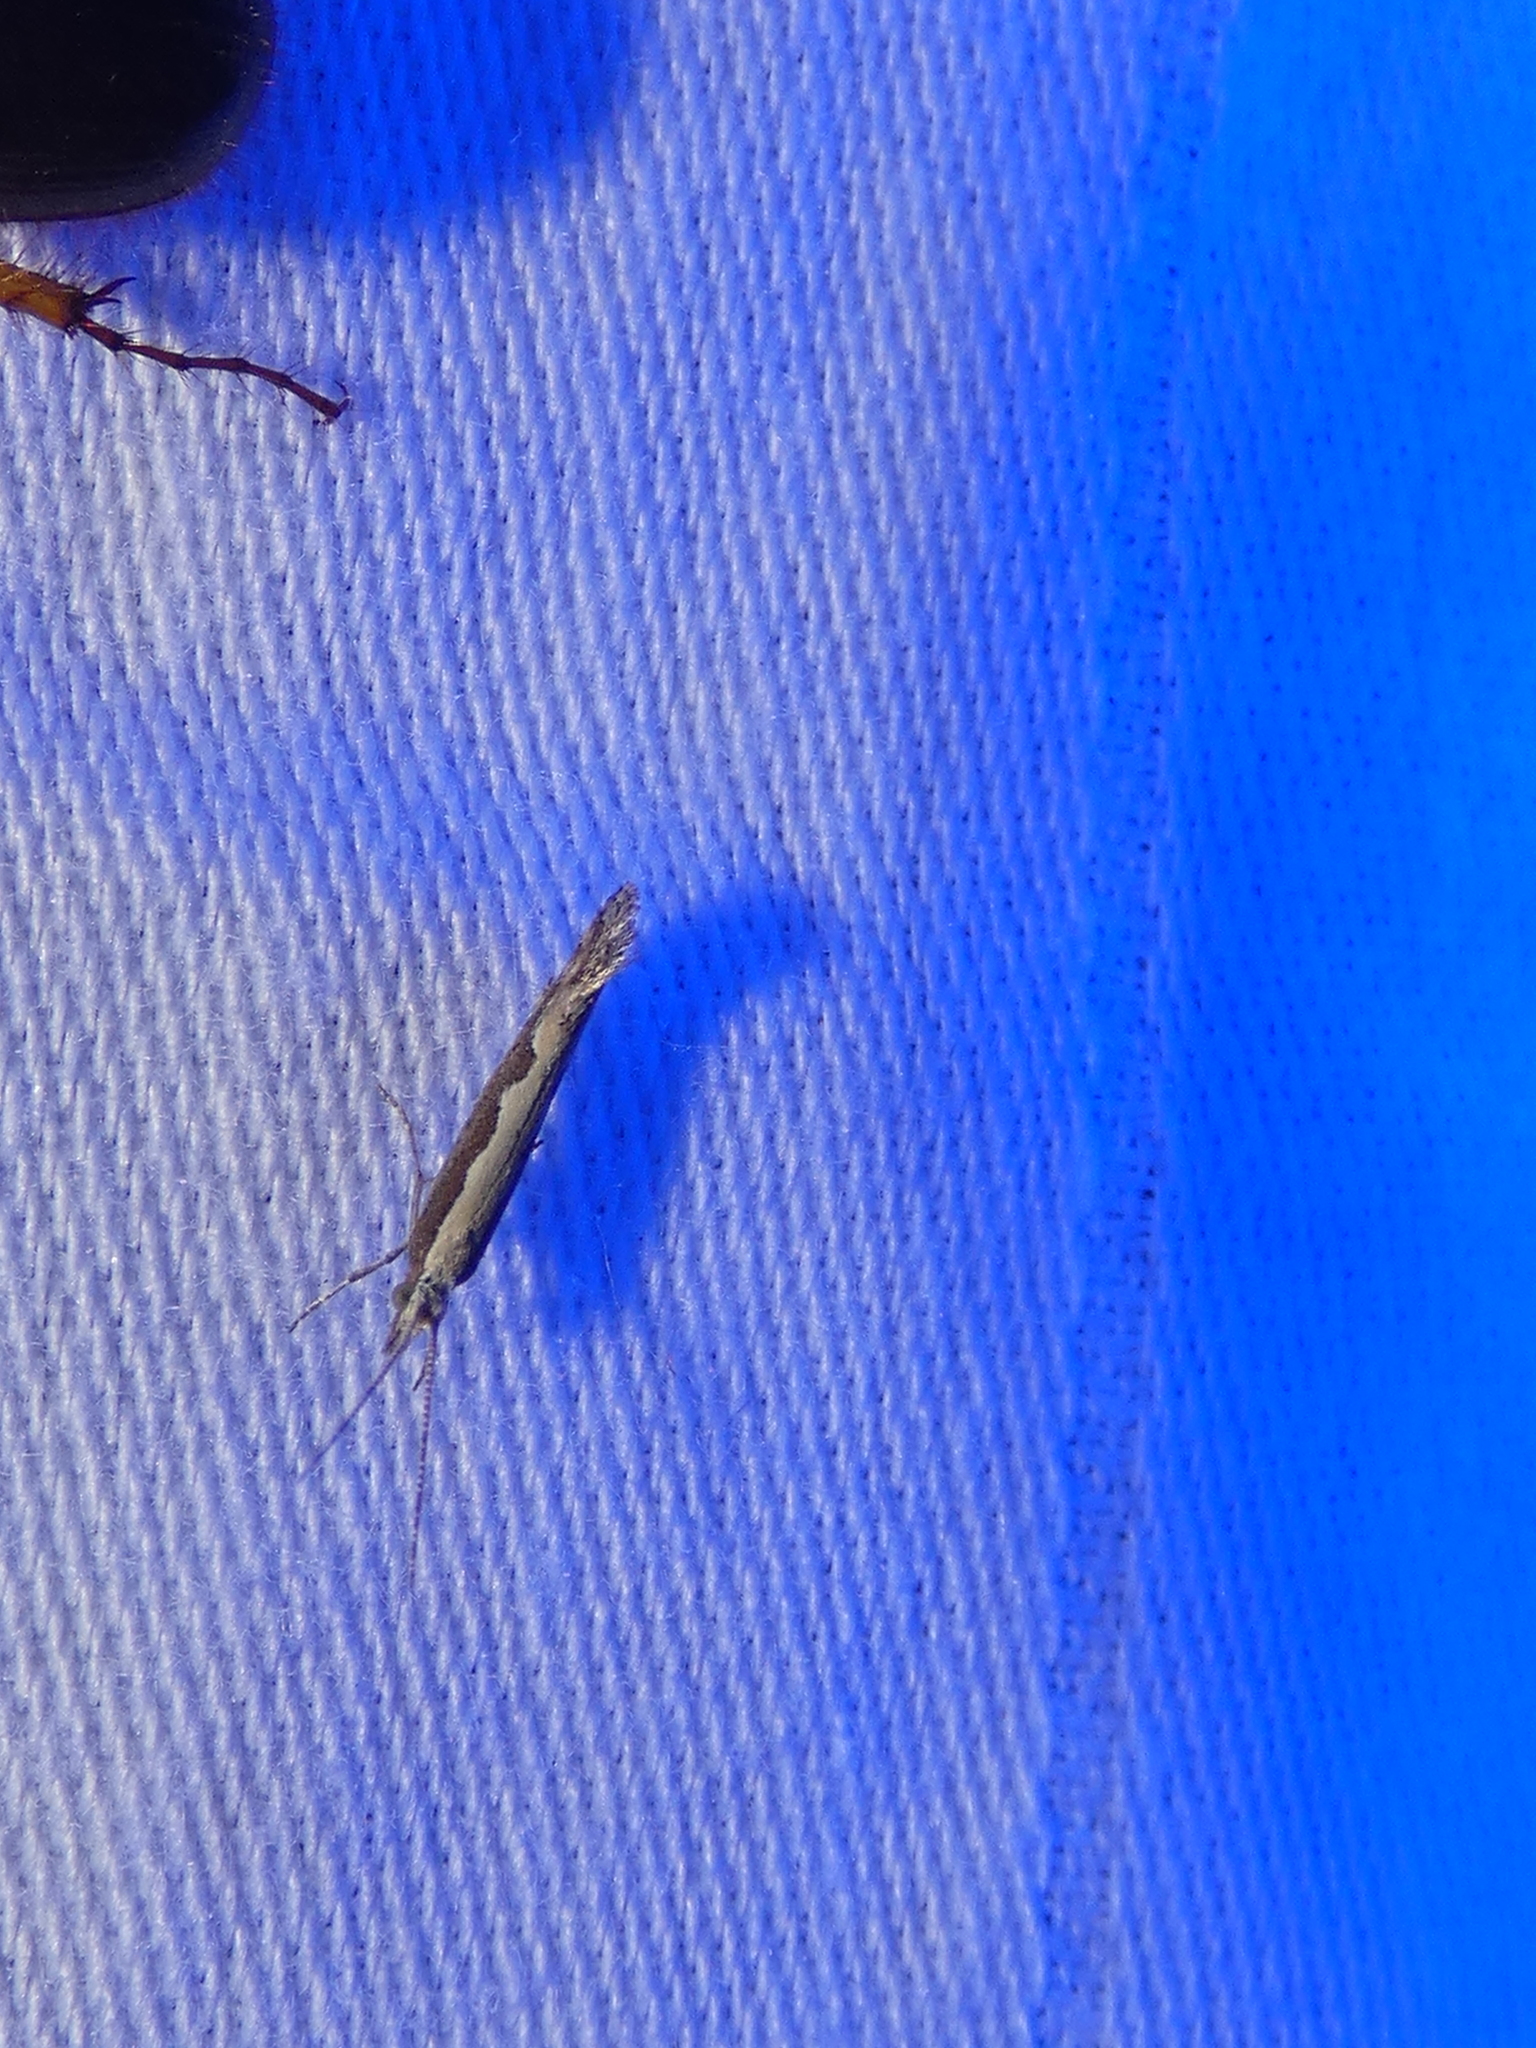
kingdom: Animalia
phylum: Arthropoda
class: Insecta
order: Lepidoptera
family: Plutellidae
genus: Plutella
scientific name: Plutella xylostella
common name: Diamond-back moth
